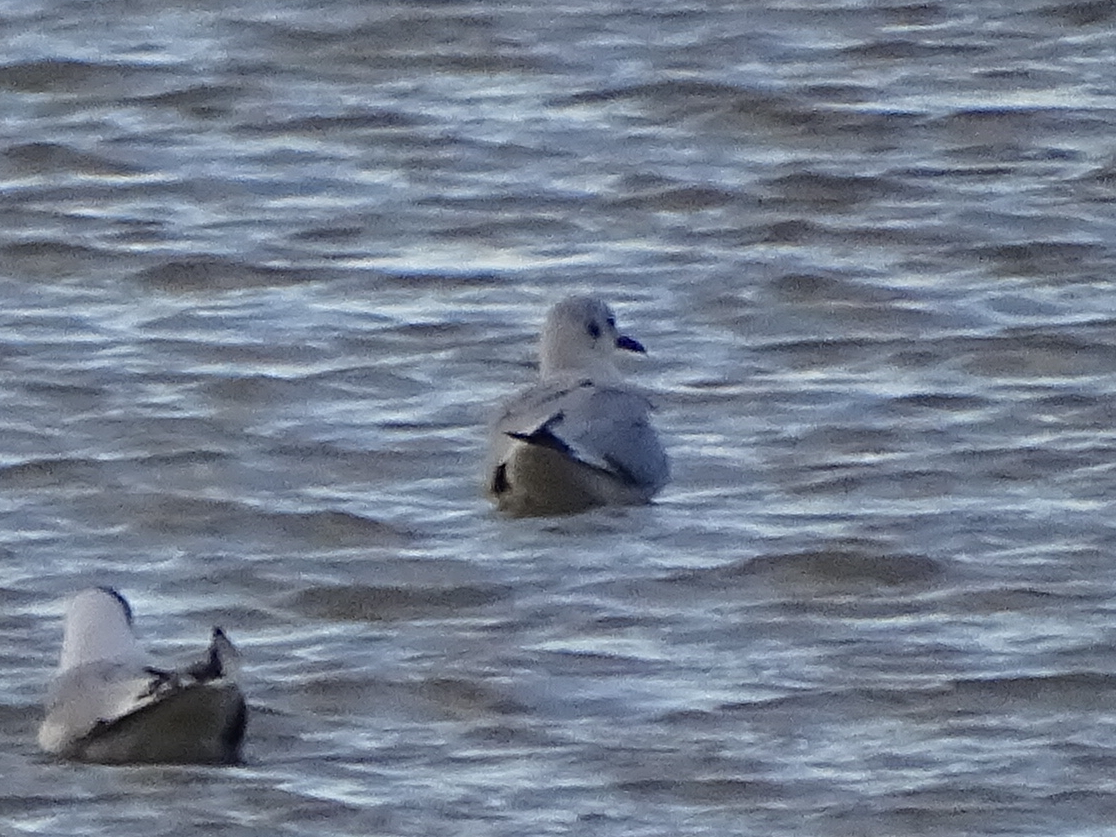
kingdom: Animalia
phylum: Chordata
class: Aves
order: Charadriiformes
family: Laridae
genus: Chroicocephalus
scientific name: Chroicocephalus ridibundus
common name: Black-headed gull
